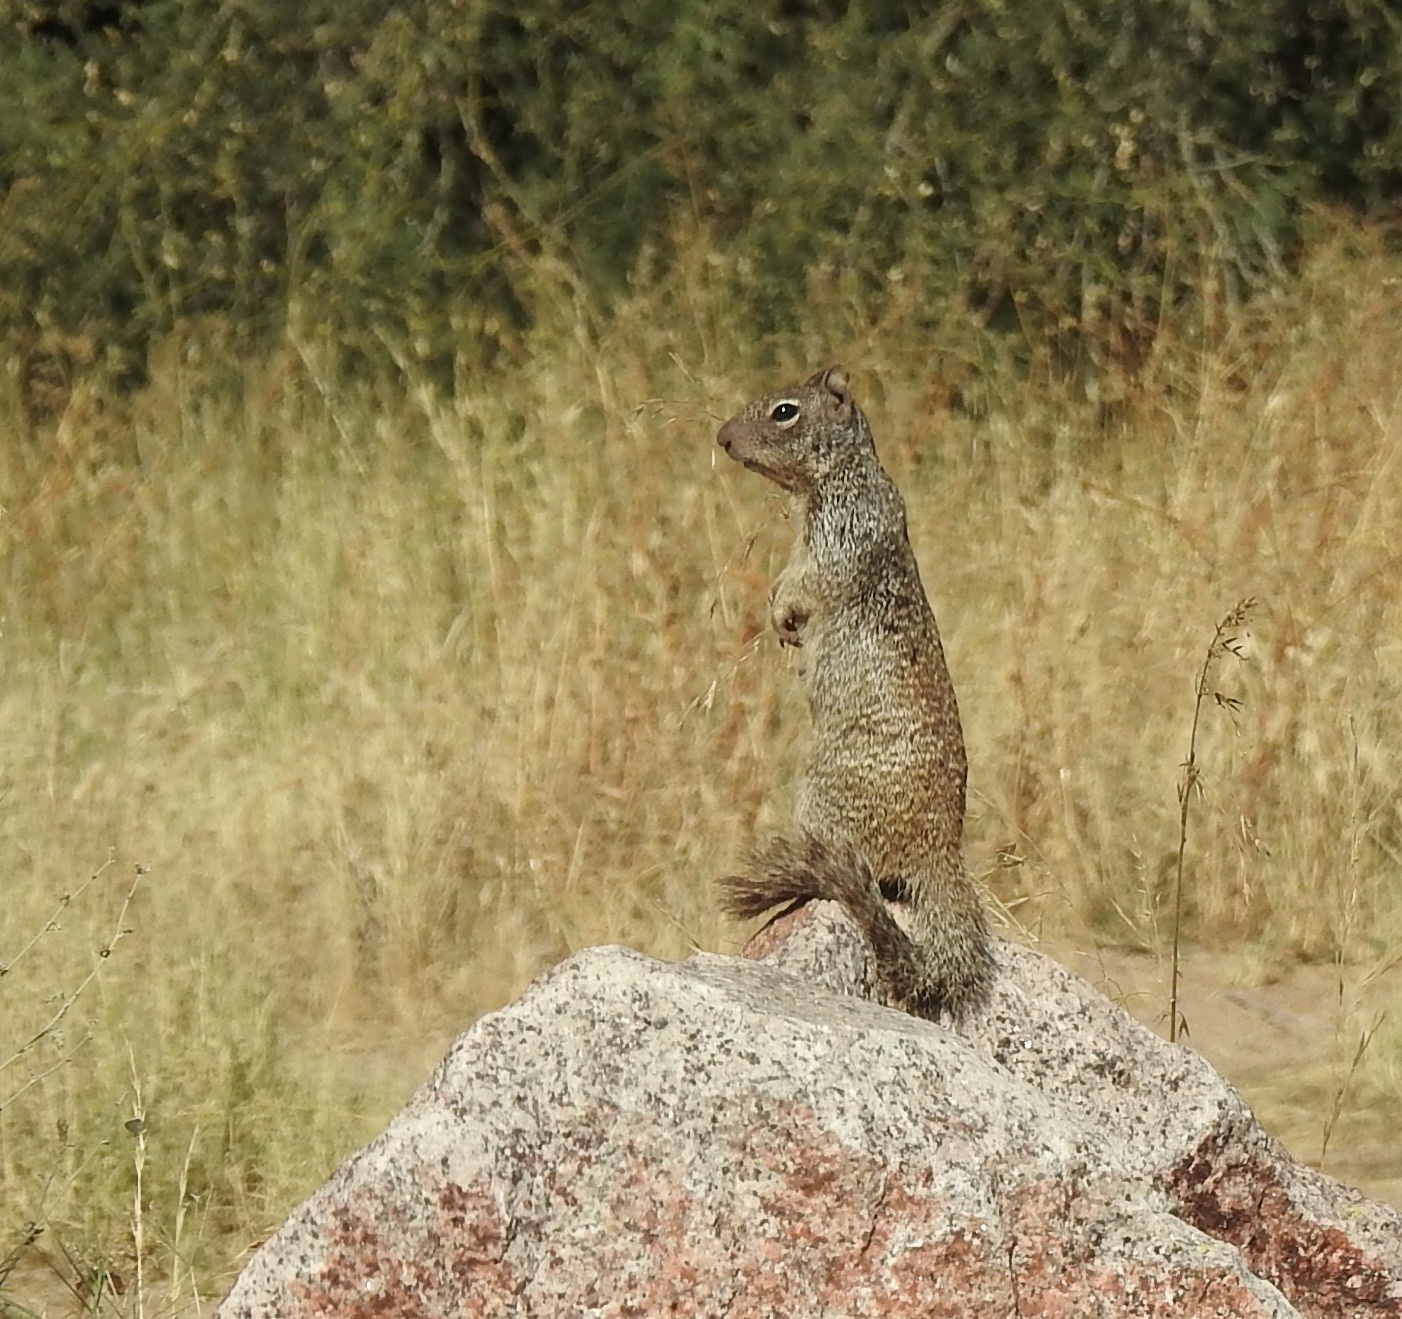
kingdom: Animalia
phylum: Chordata
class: Mammalia
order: Rodentia
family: Sciuridae
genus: Otospermophilus
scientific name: Otospermophilus variegatus
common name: Rock squirrel
